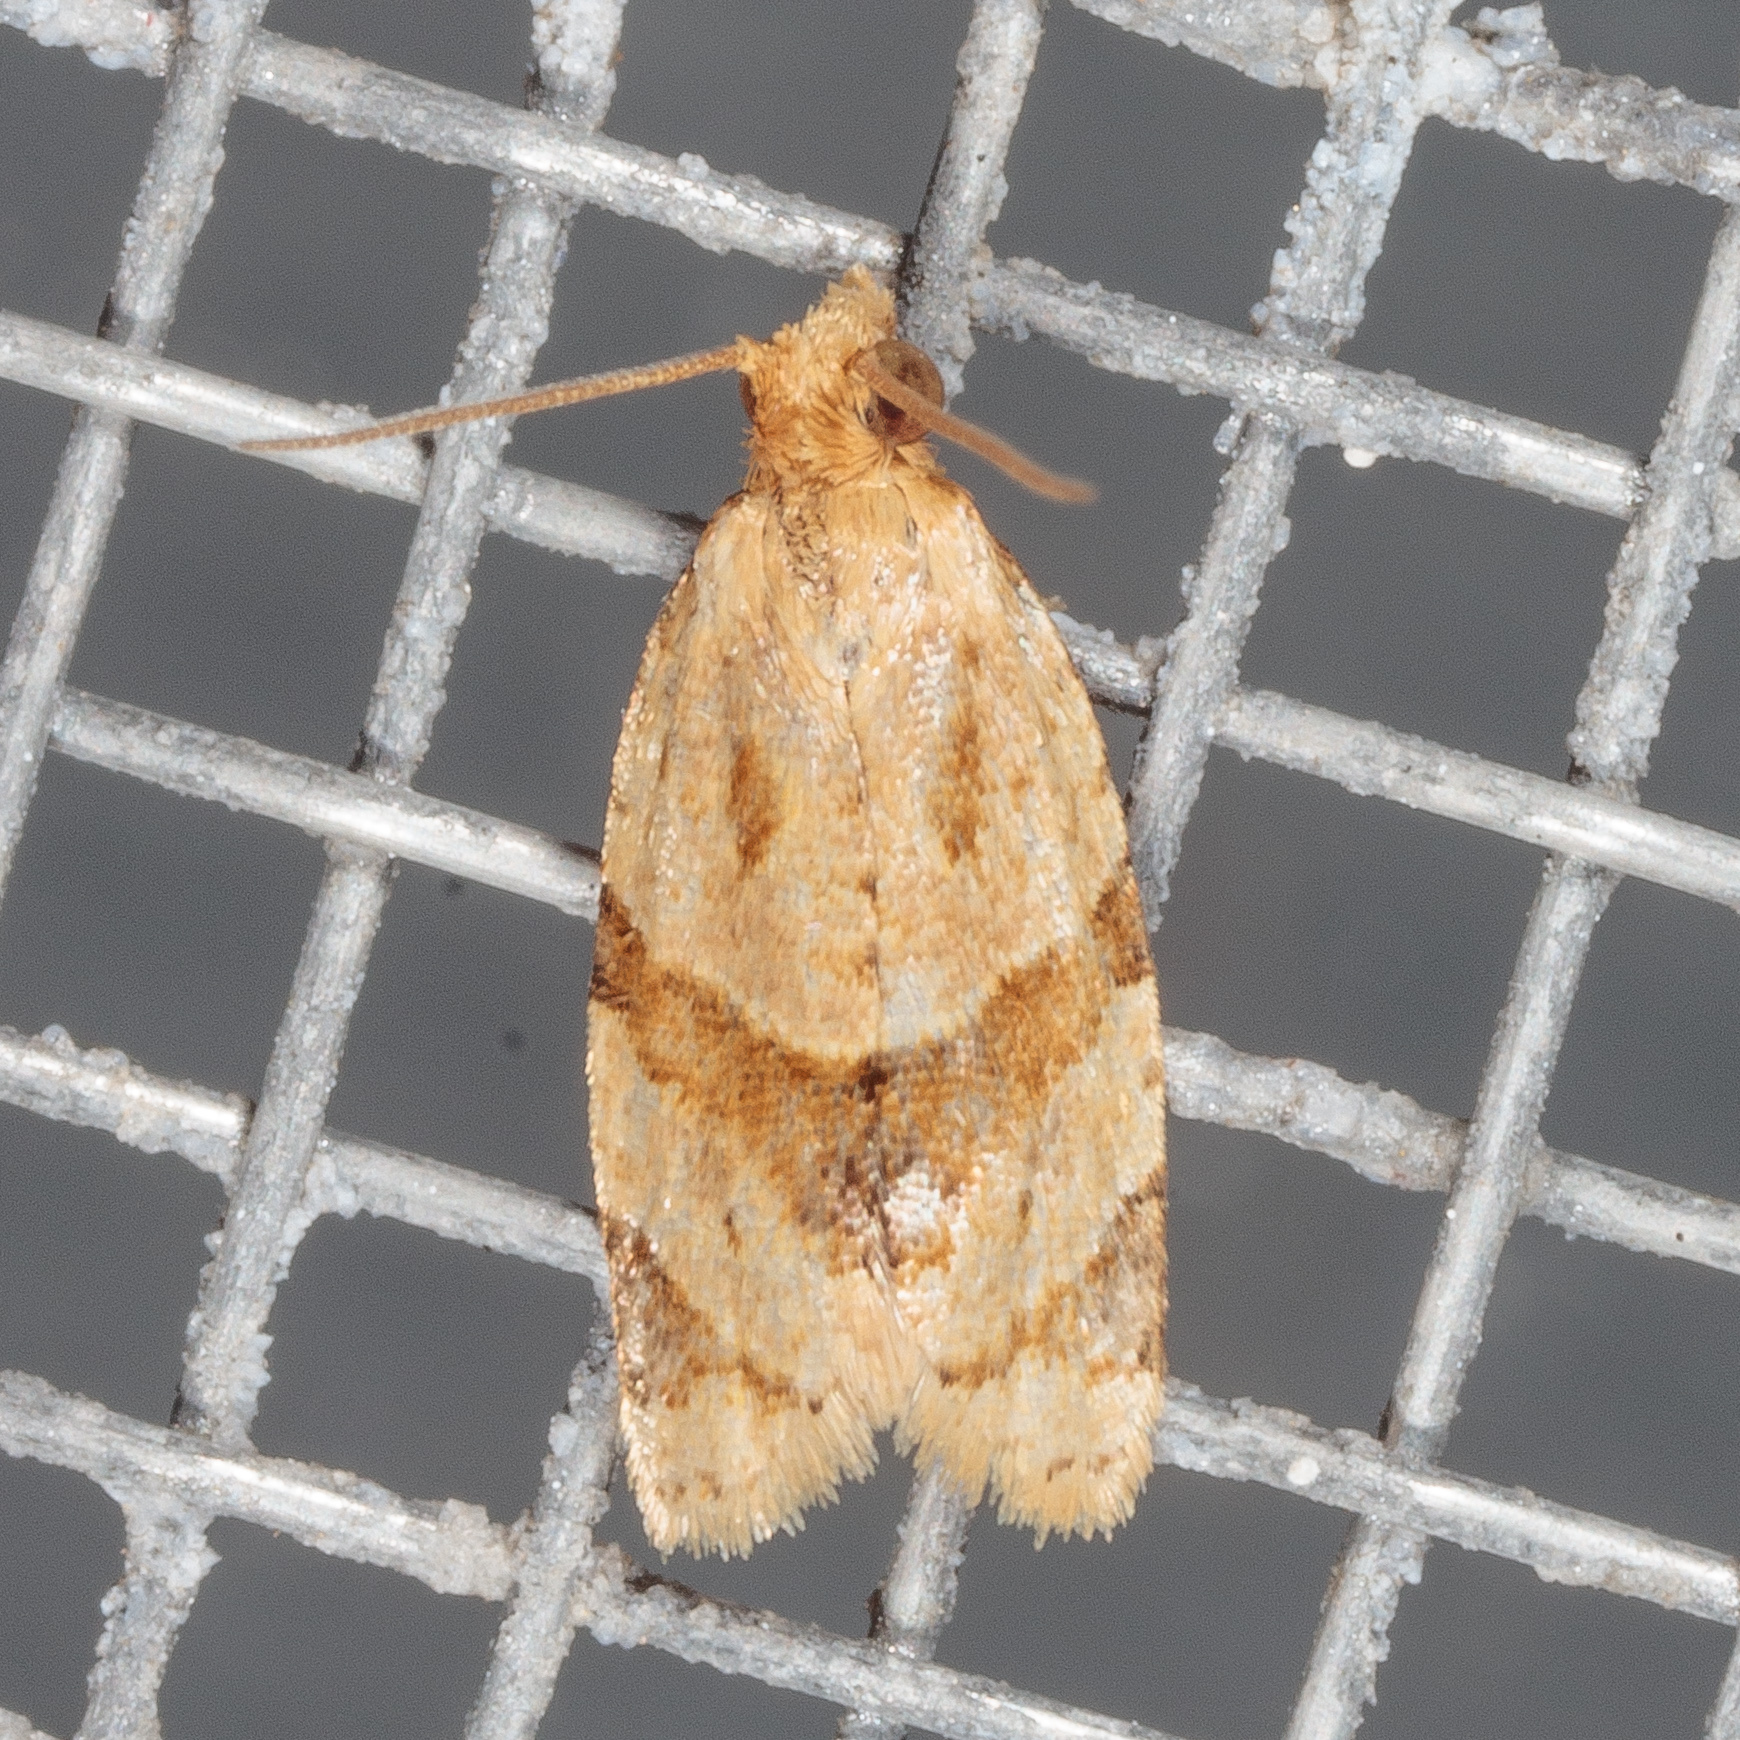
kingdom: Animalia
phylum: Arthropoda
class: Insecta
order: Lepidoptera
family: Tortricidae
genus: Clepsis
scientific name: Clepsis peritana
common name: Garden tortrix
